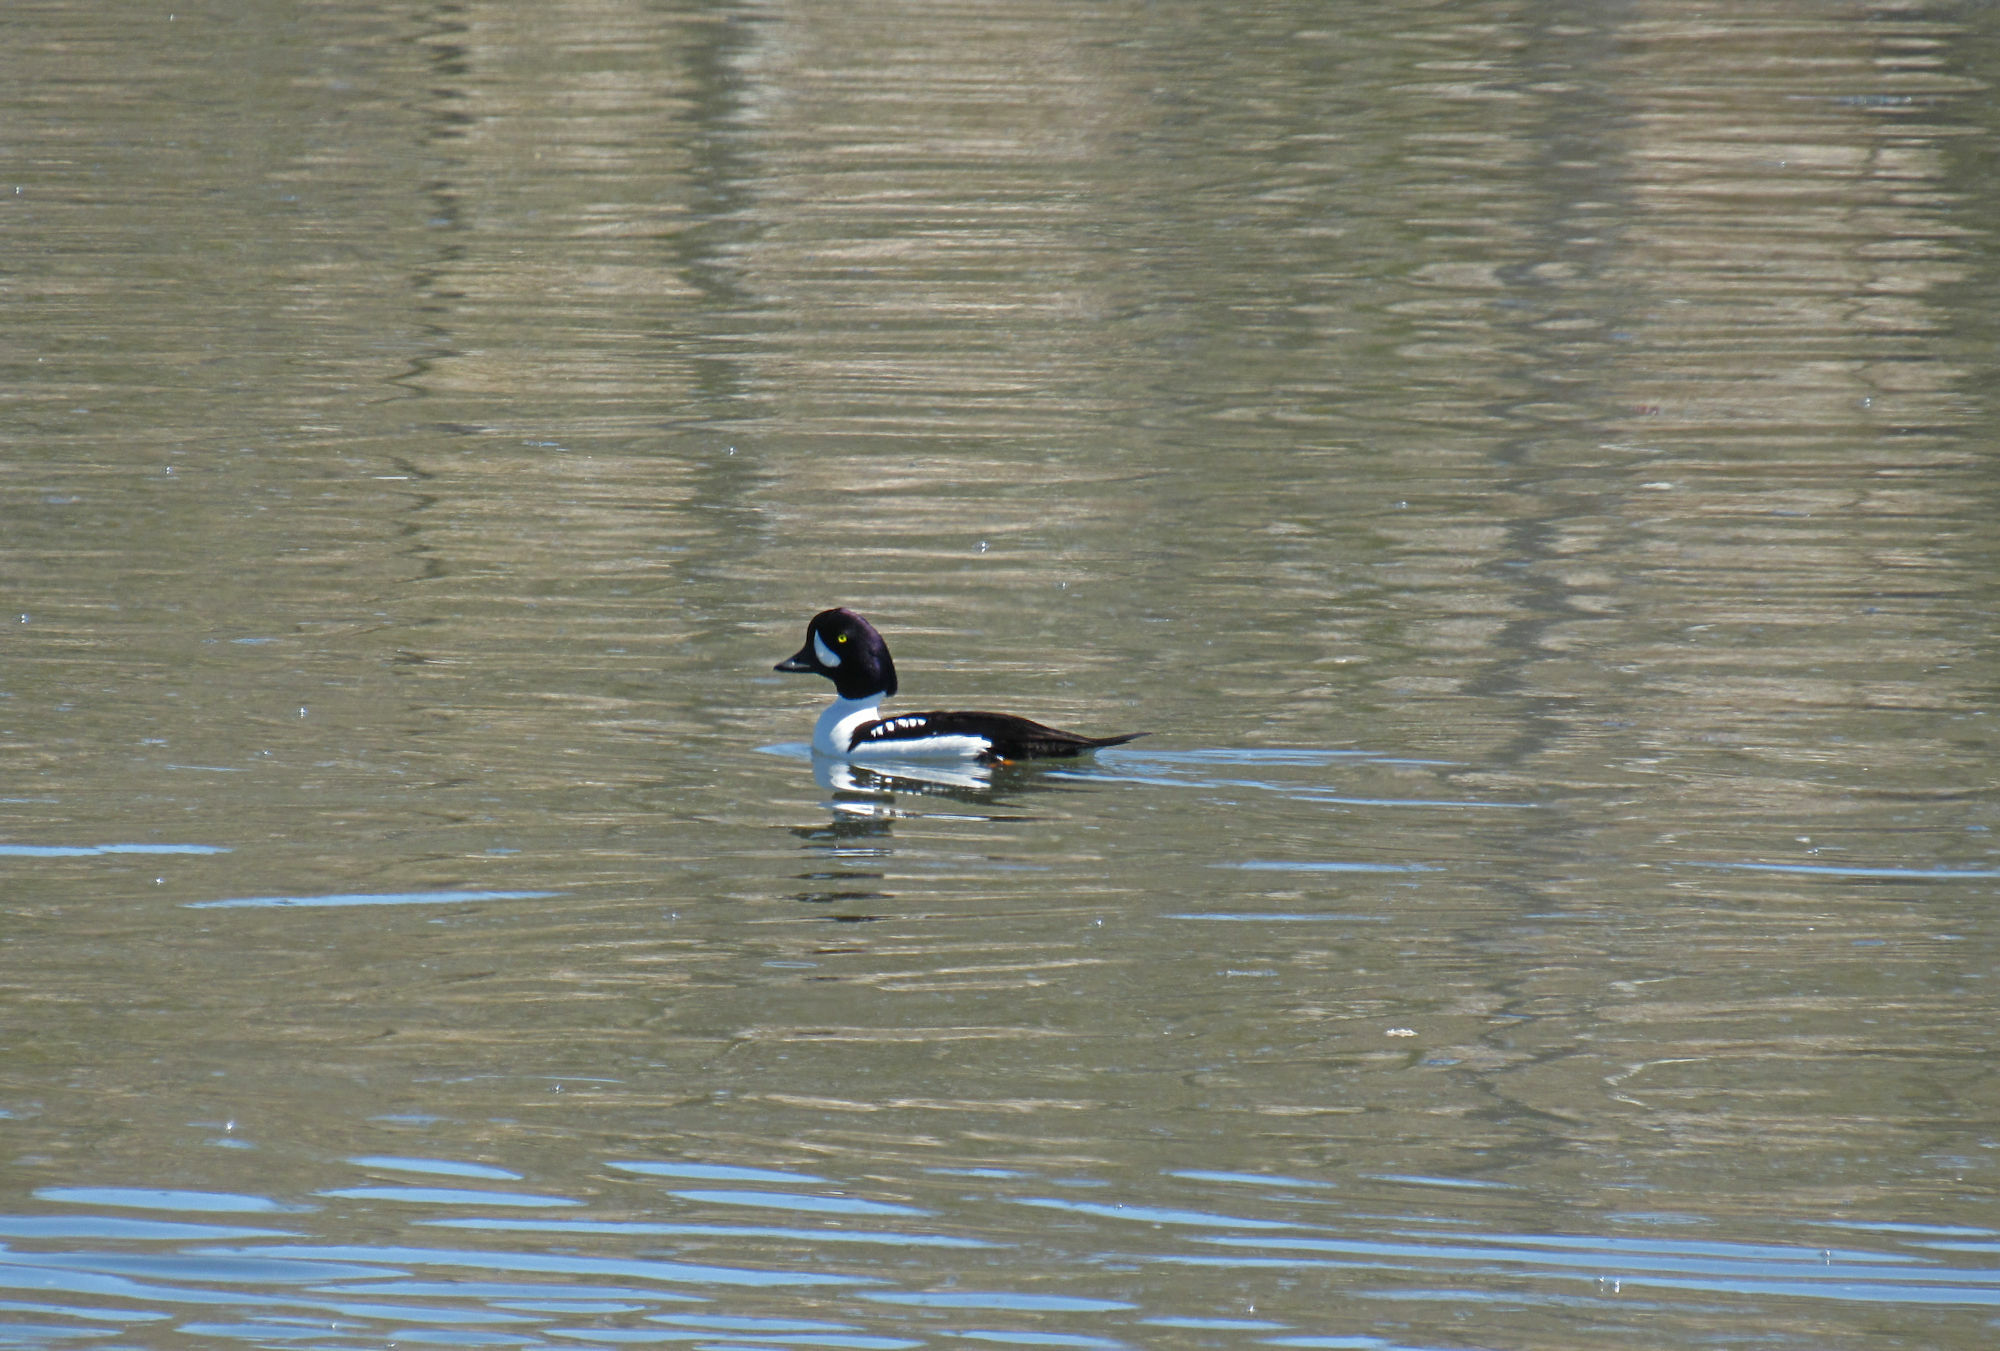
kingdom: Animalia
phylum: Chordata
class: Aves
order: Anseriformes
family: Anatidae
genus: Bucephala
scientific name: Bucephala islandica
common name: Barrow's goldeneye
